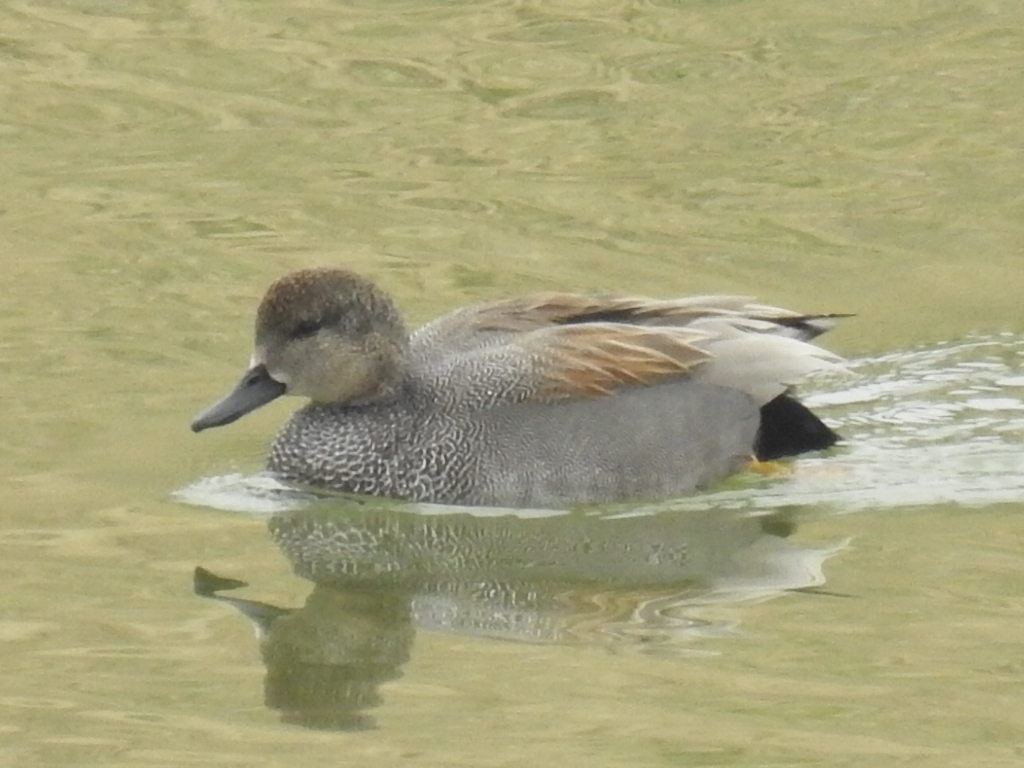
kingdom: Animalia
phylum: Chordata
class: Aves
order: Anseriformes
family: Anatidae
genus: Mareca
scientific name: Mareca strepera
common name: Gadwall
